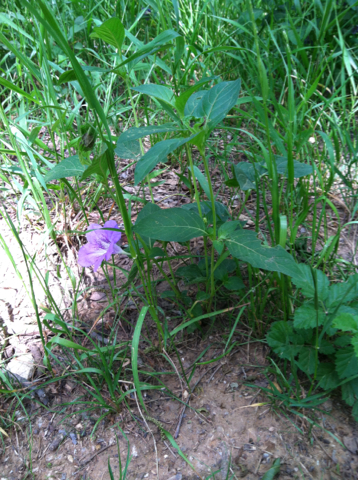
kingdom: Plantae
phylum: Tracheophyta
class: Magnoliopsida
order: Lamiales
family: Acanthaceae
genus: Ruellia
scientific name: Ruellia strepens
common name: Limestone wild petunia
